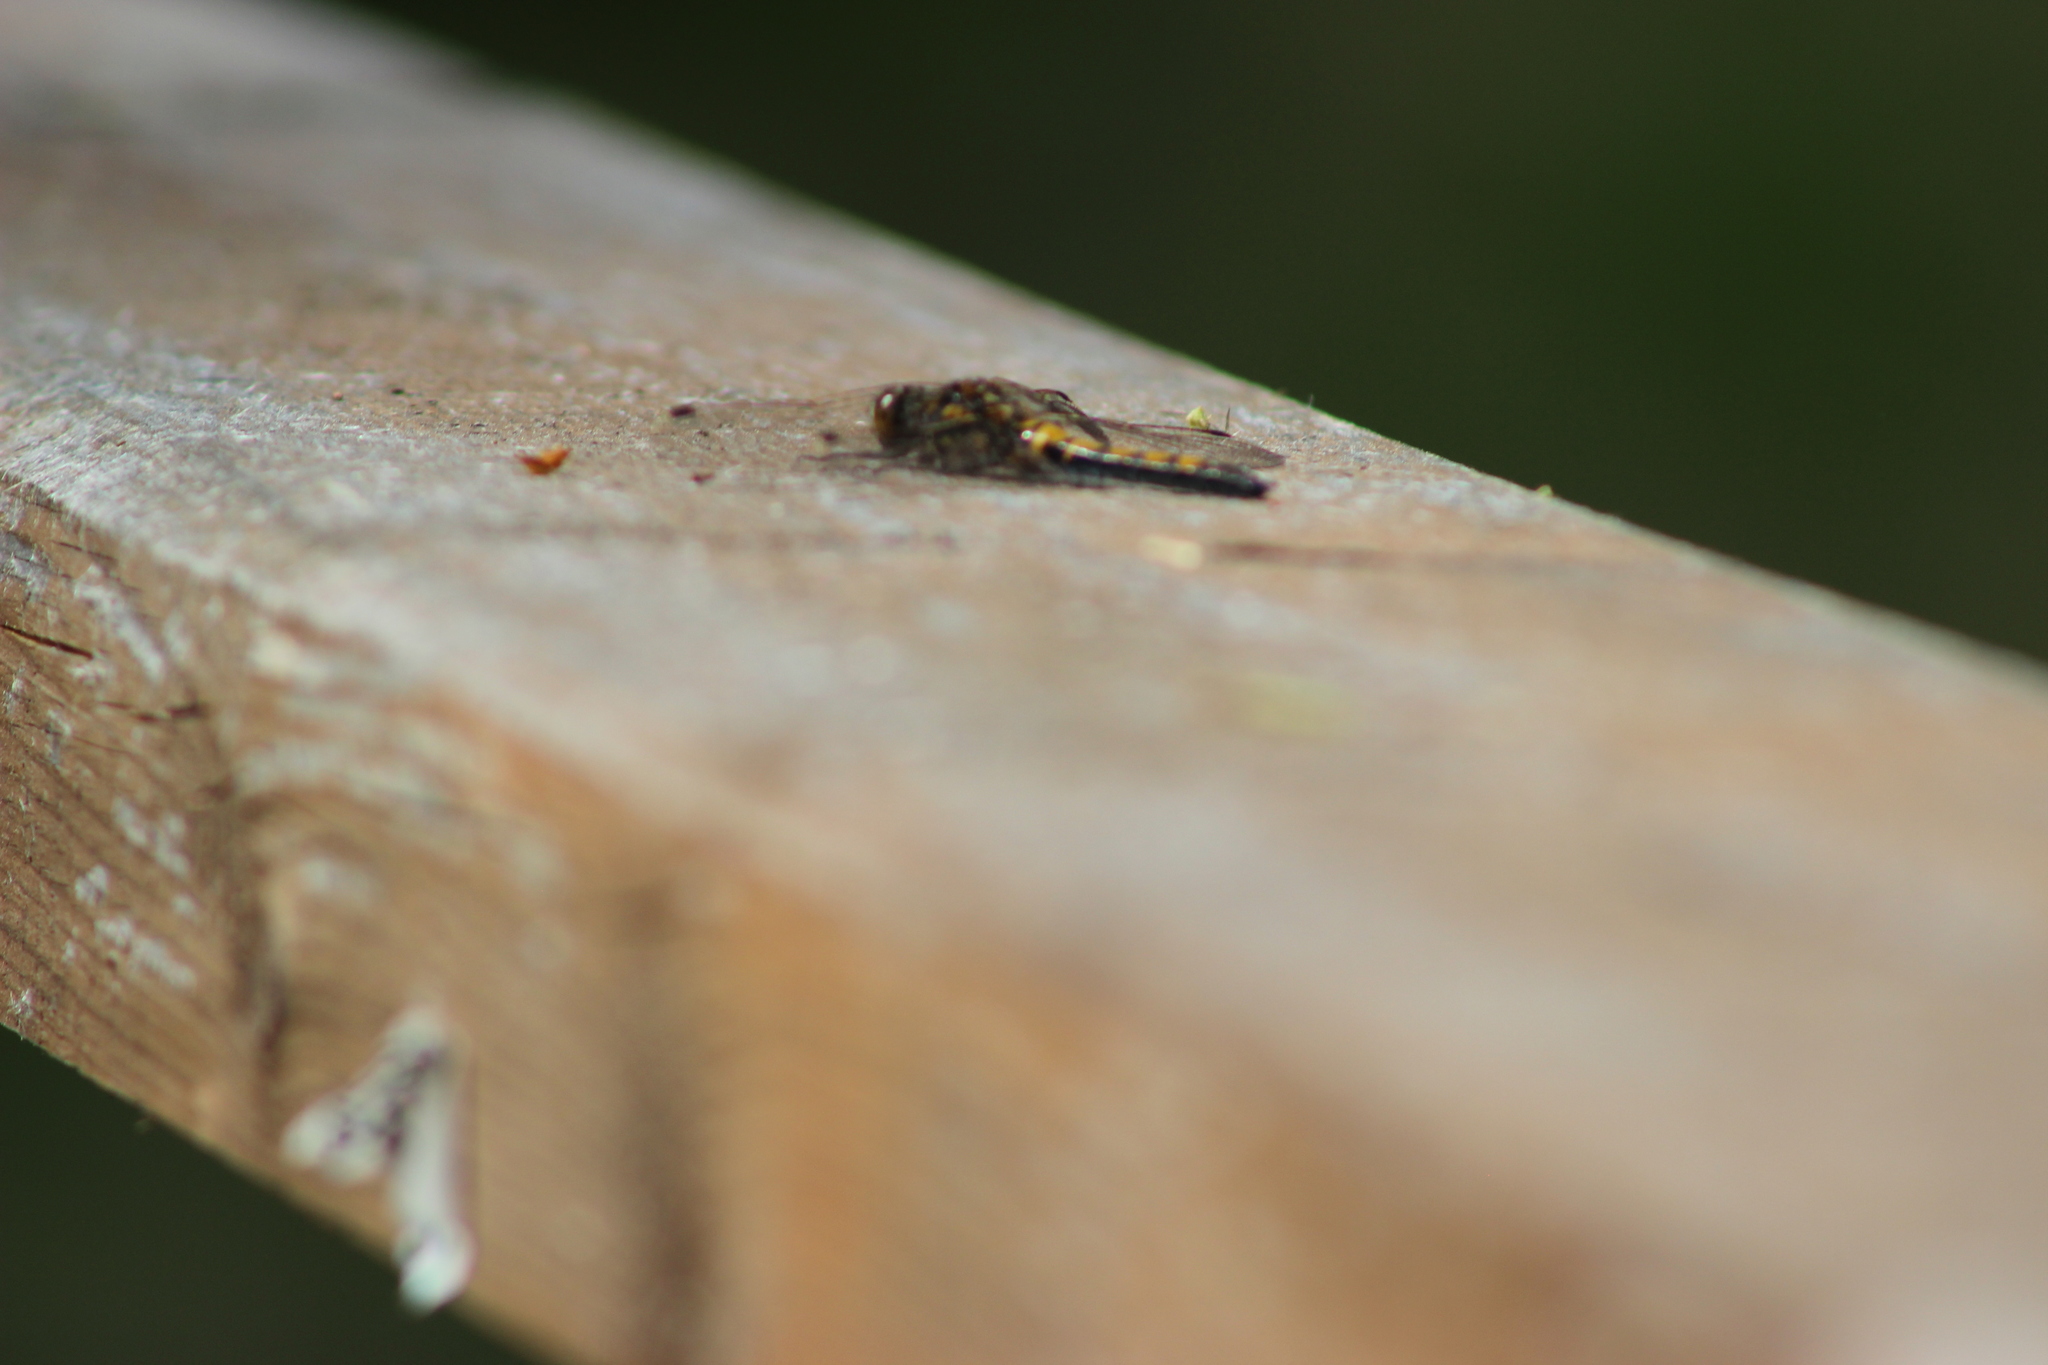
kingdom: Animalia
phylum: Arthropoda
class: Insecta
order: Odonata
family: Libellulidae
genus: Leucorrhinia
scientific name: Leucorrhinia rubicunda
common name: Ruby whiteface
